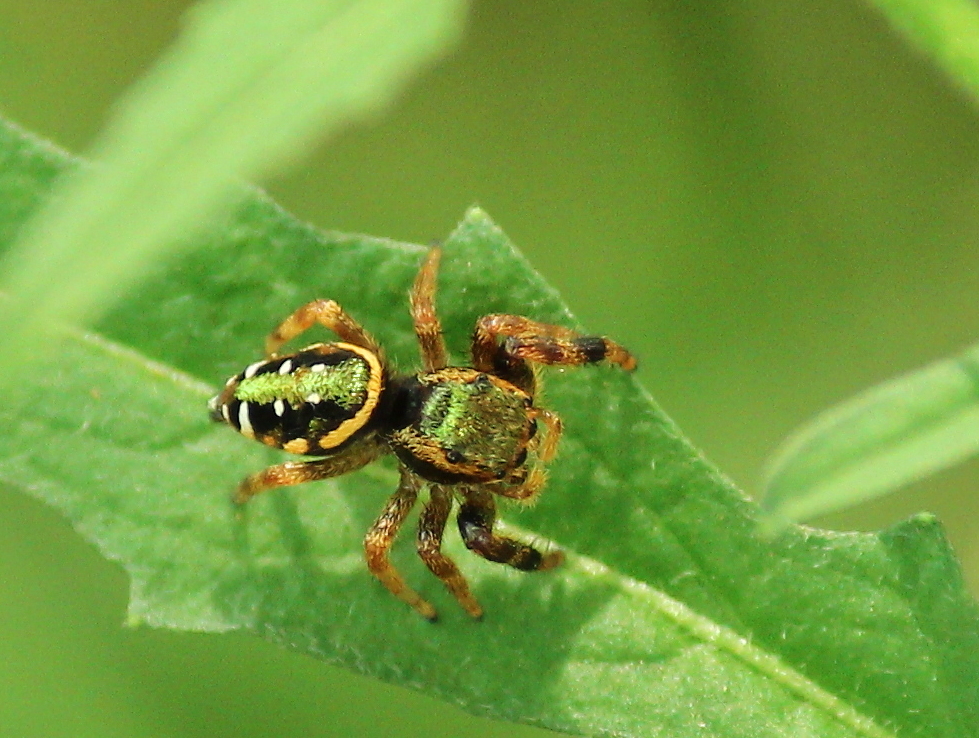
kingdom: Animalia
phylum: Arthropoda
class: Arachnida
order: Araneae
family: Salticidae
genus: Paraphidippus
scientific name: Paraphidippus aurantius
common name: Jumping spiders
